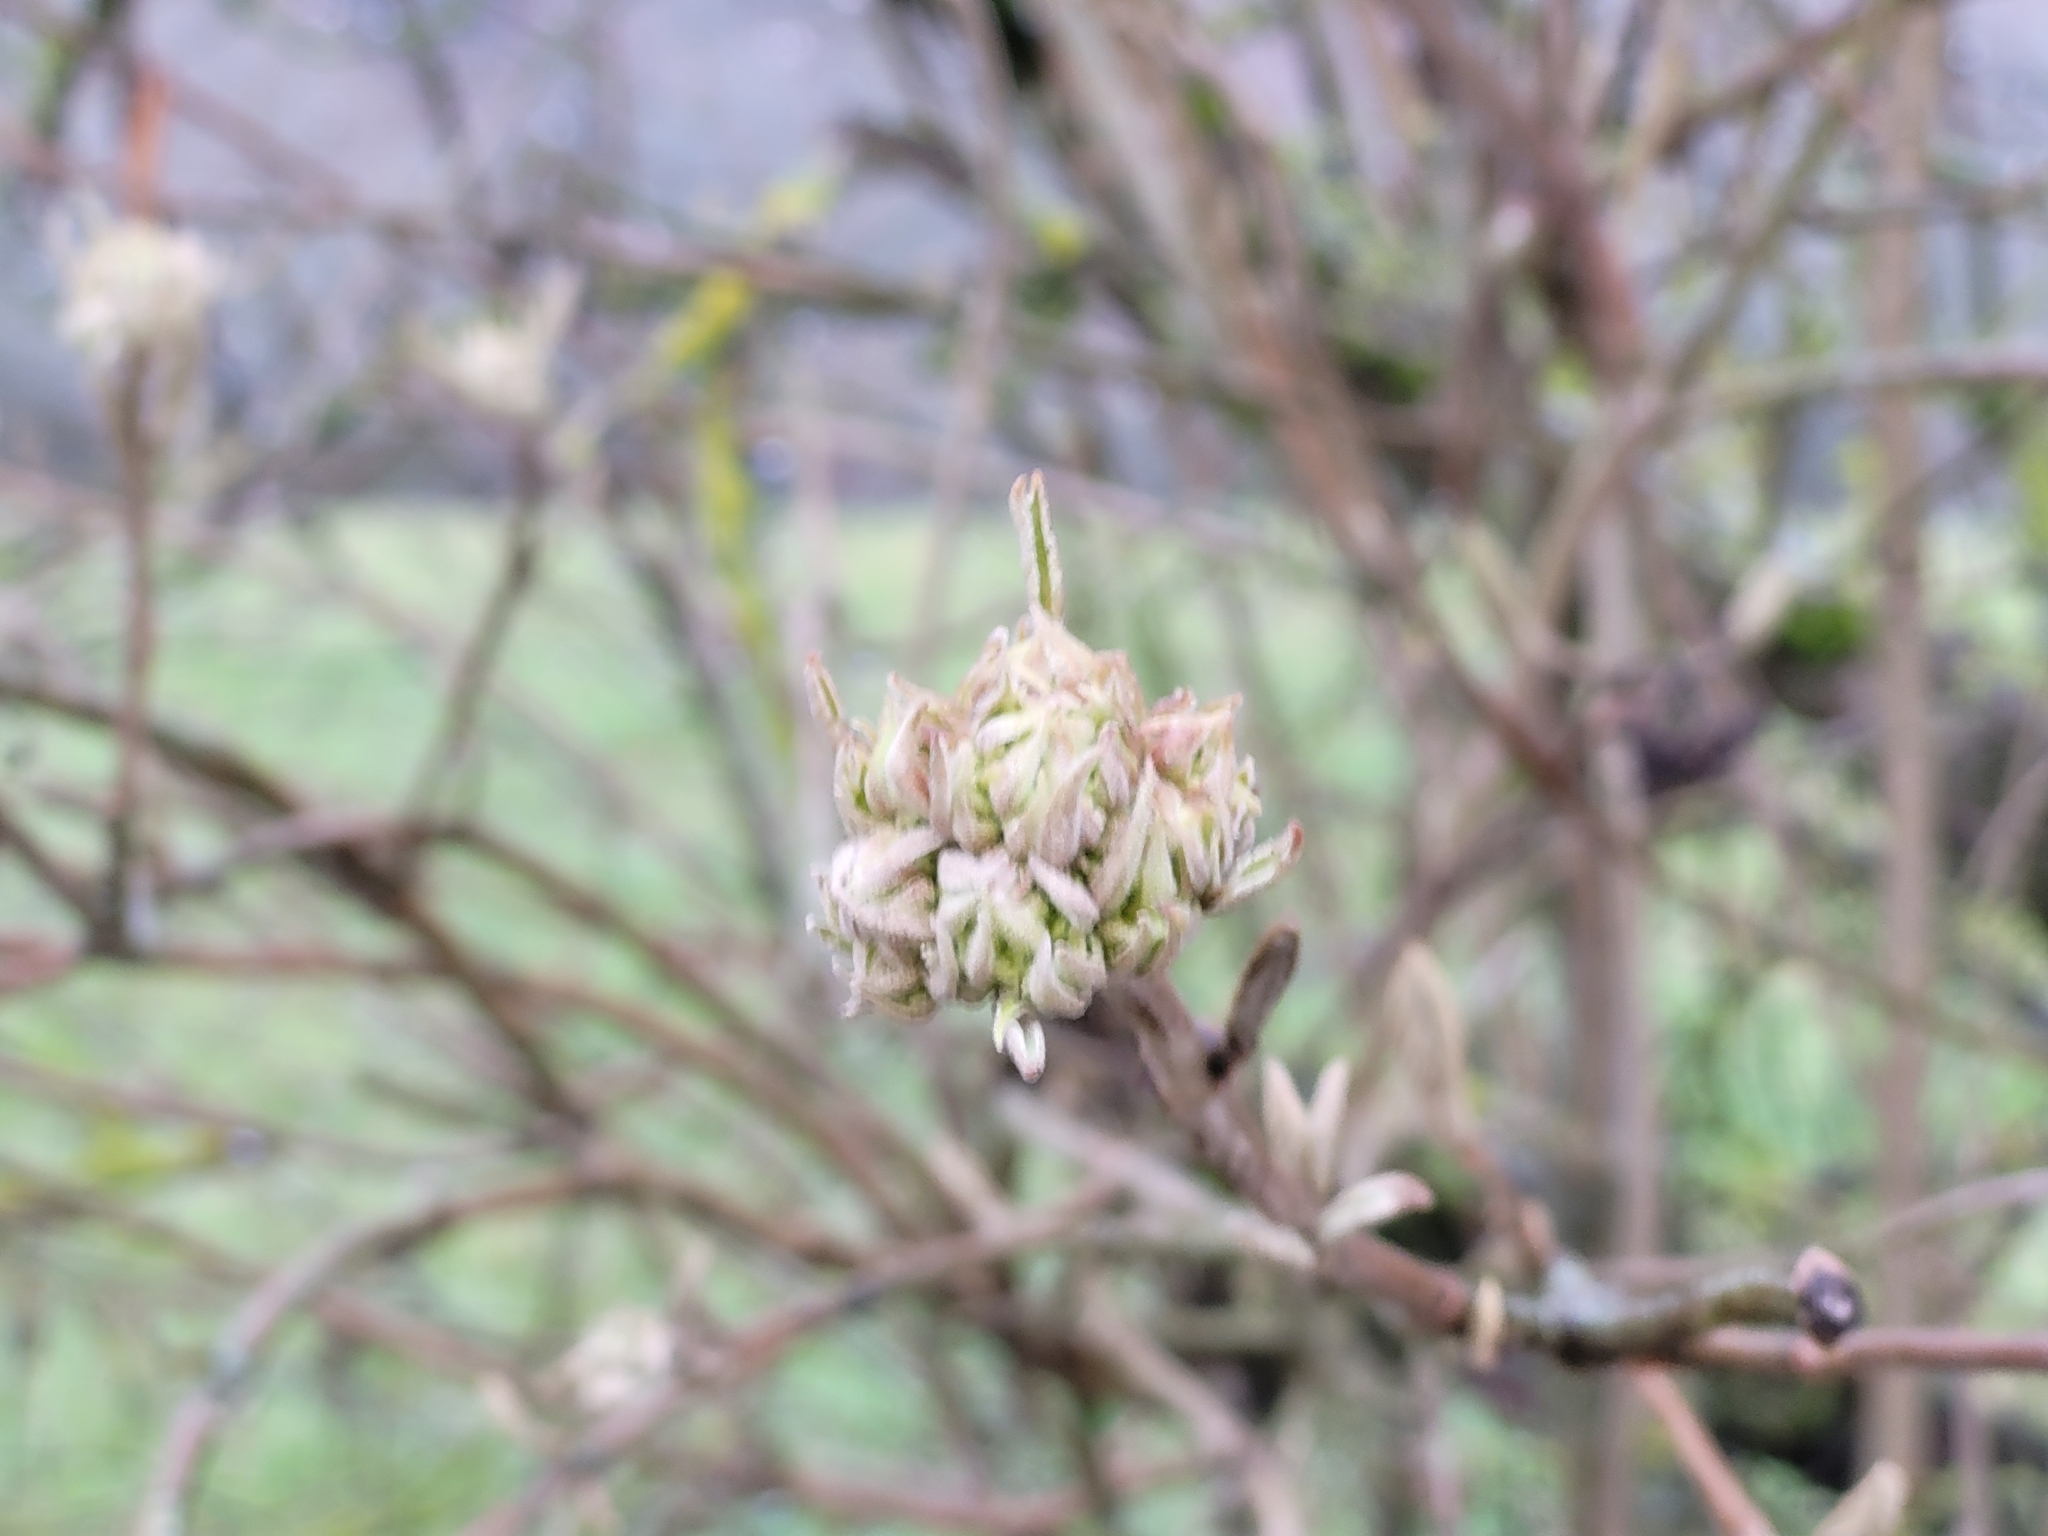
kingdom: Plantae
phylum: Tracheophyta
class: Magnoliopsida
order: Dipsacales
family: Viburnaceae
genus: Viburnum
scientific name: Viburnum lantana
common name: Wayfaring tree
